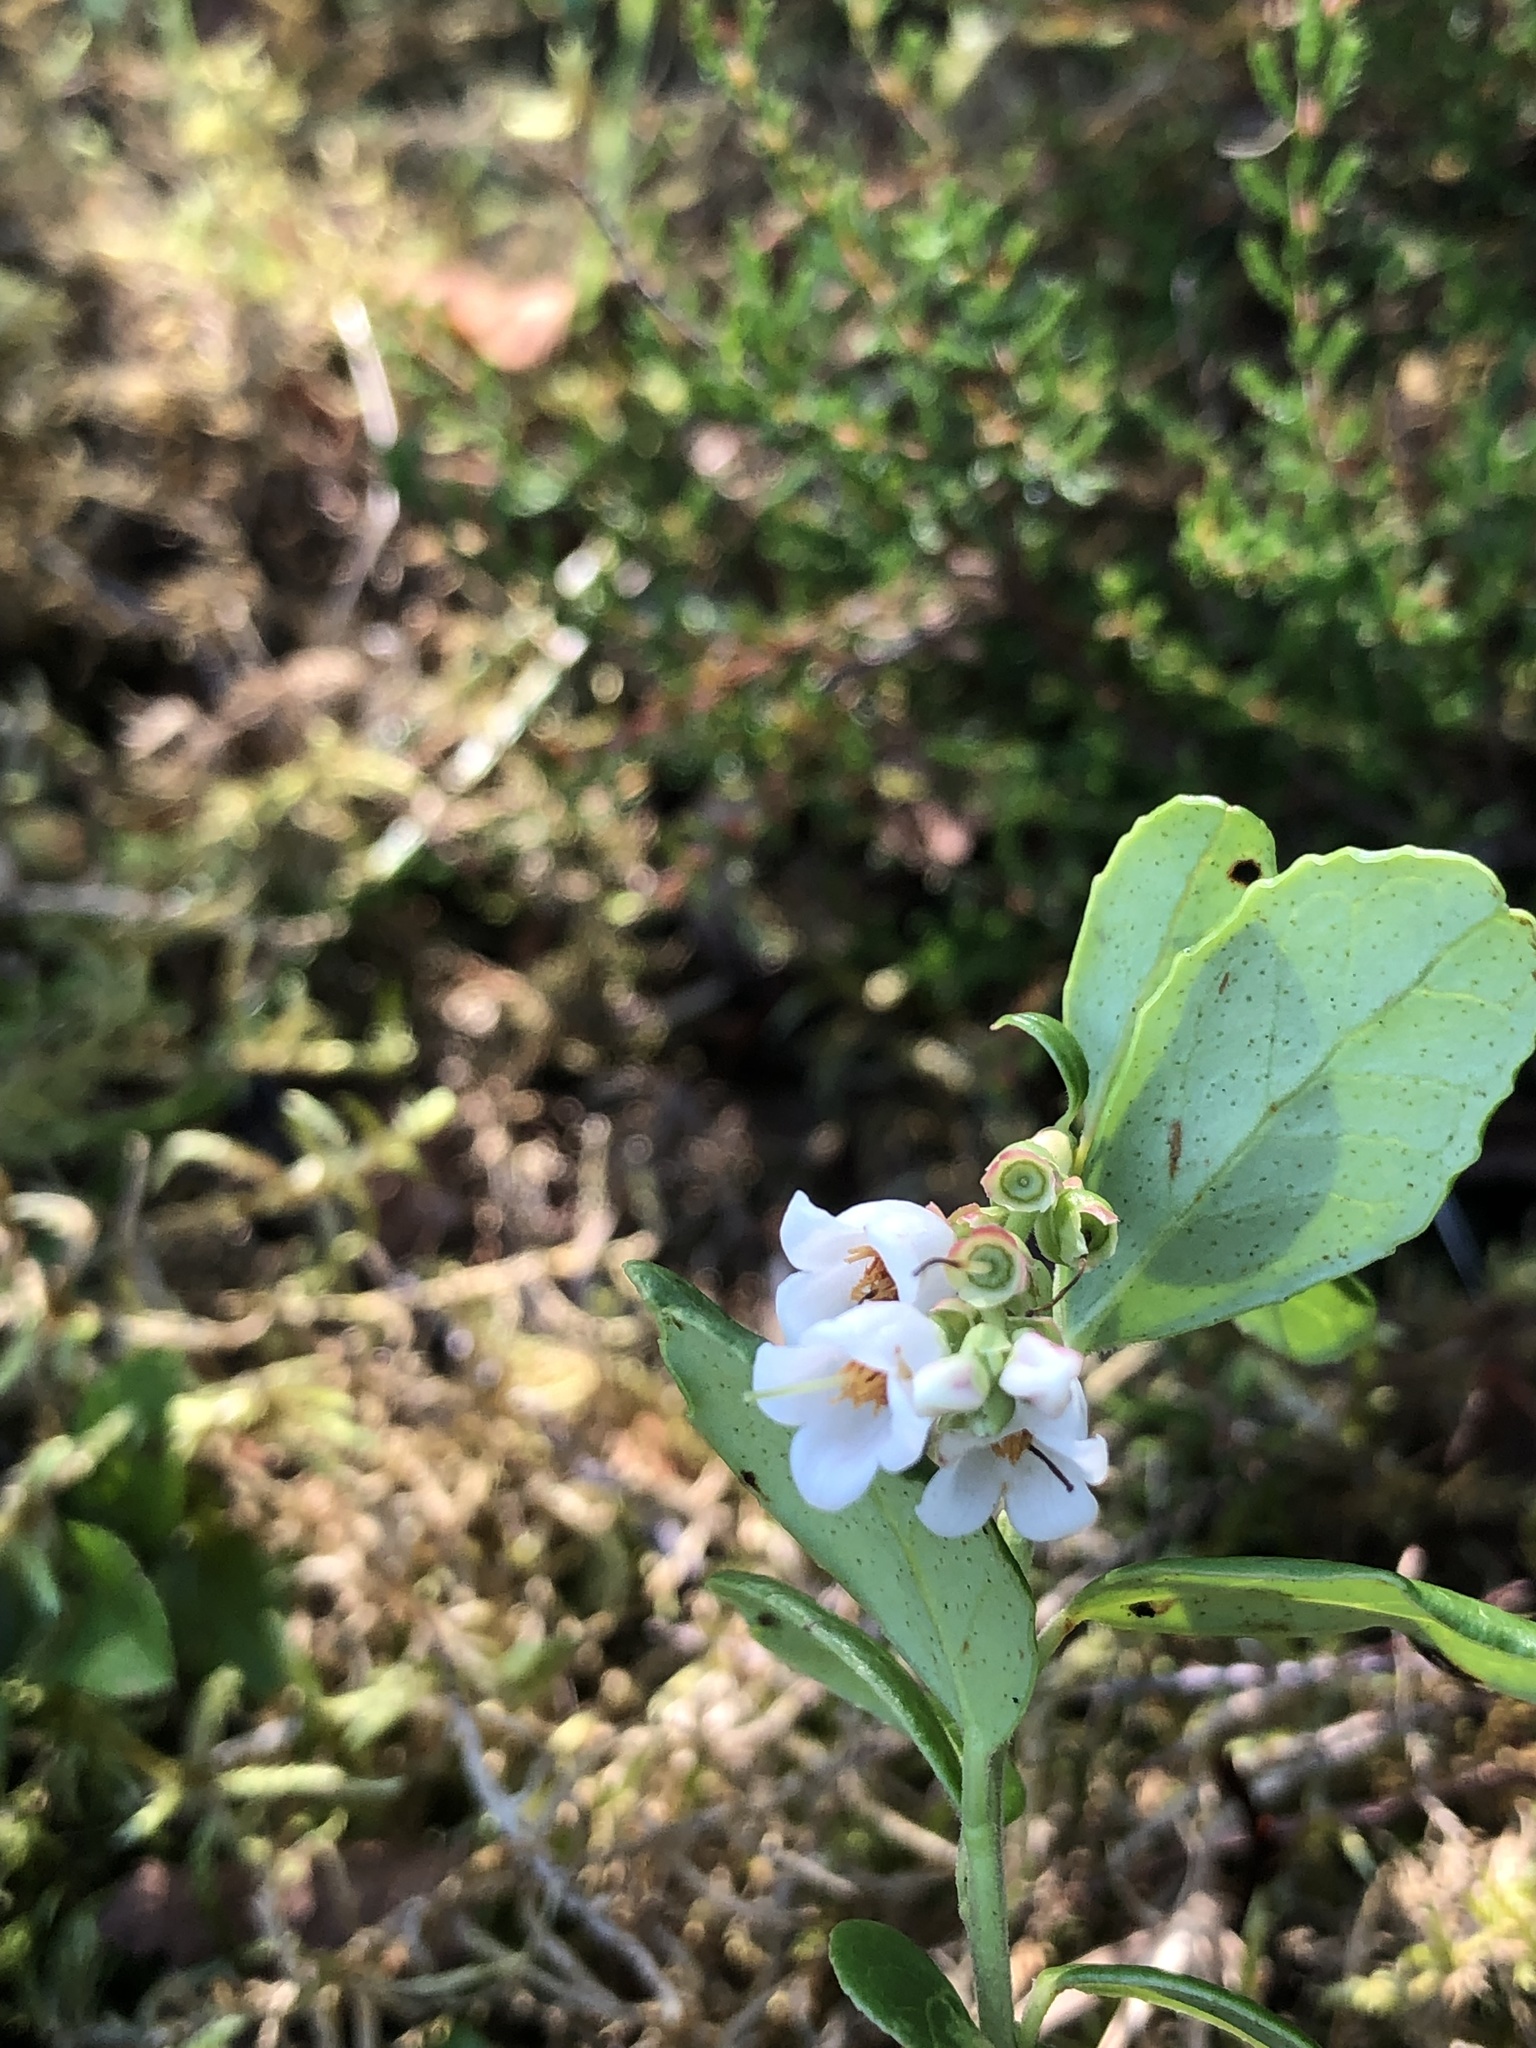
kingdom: Plantae
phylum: Tracheophyta
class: Magnoliopsida
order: Ericales
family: Ericaceae
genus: Vaccinium
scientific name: Vaccinium vitis-idaea
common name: Cowberry
